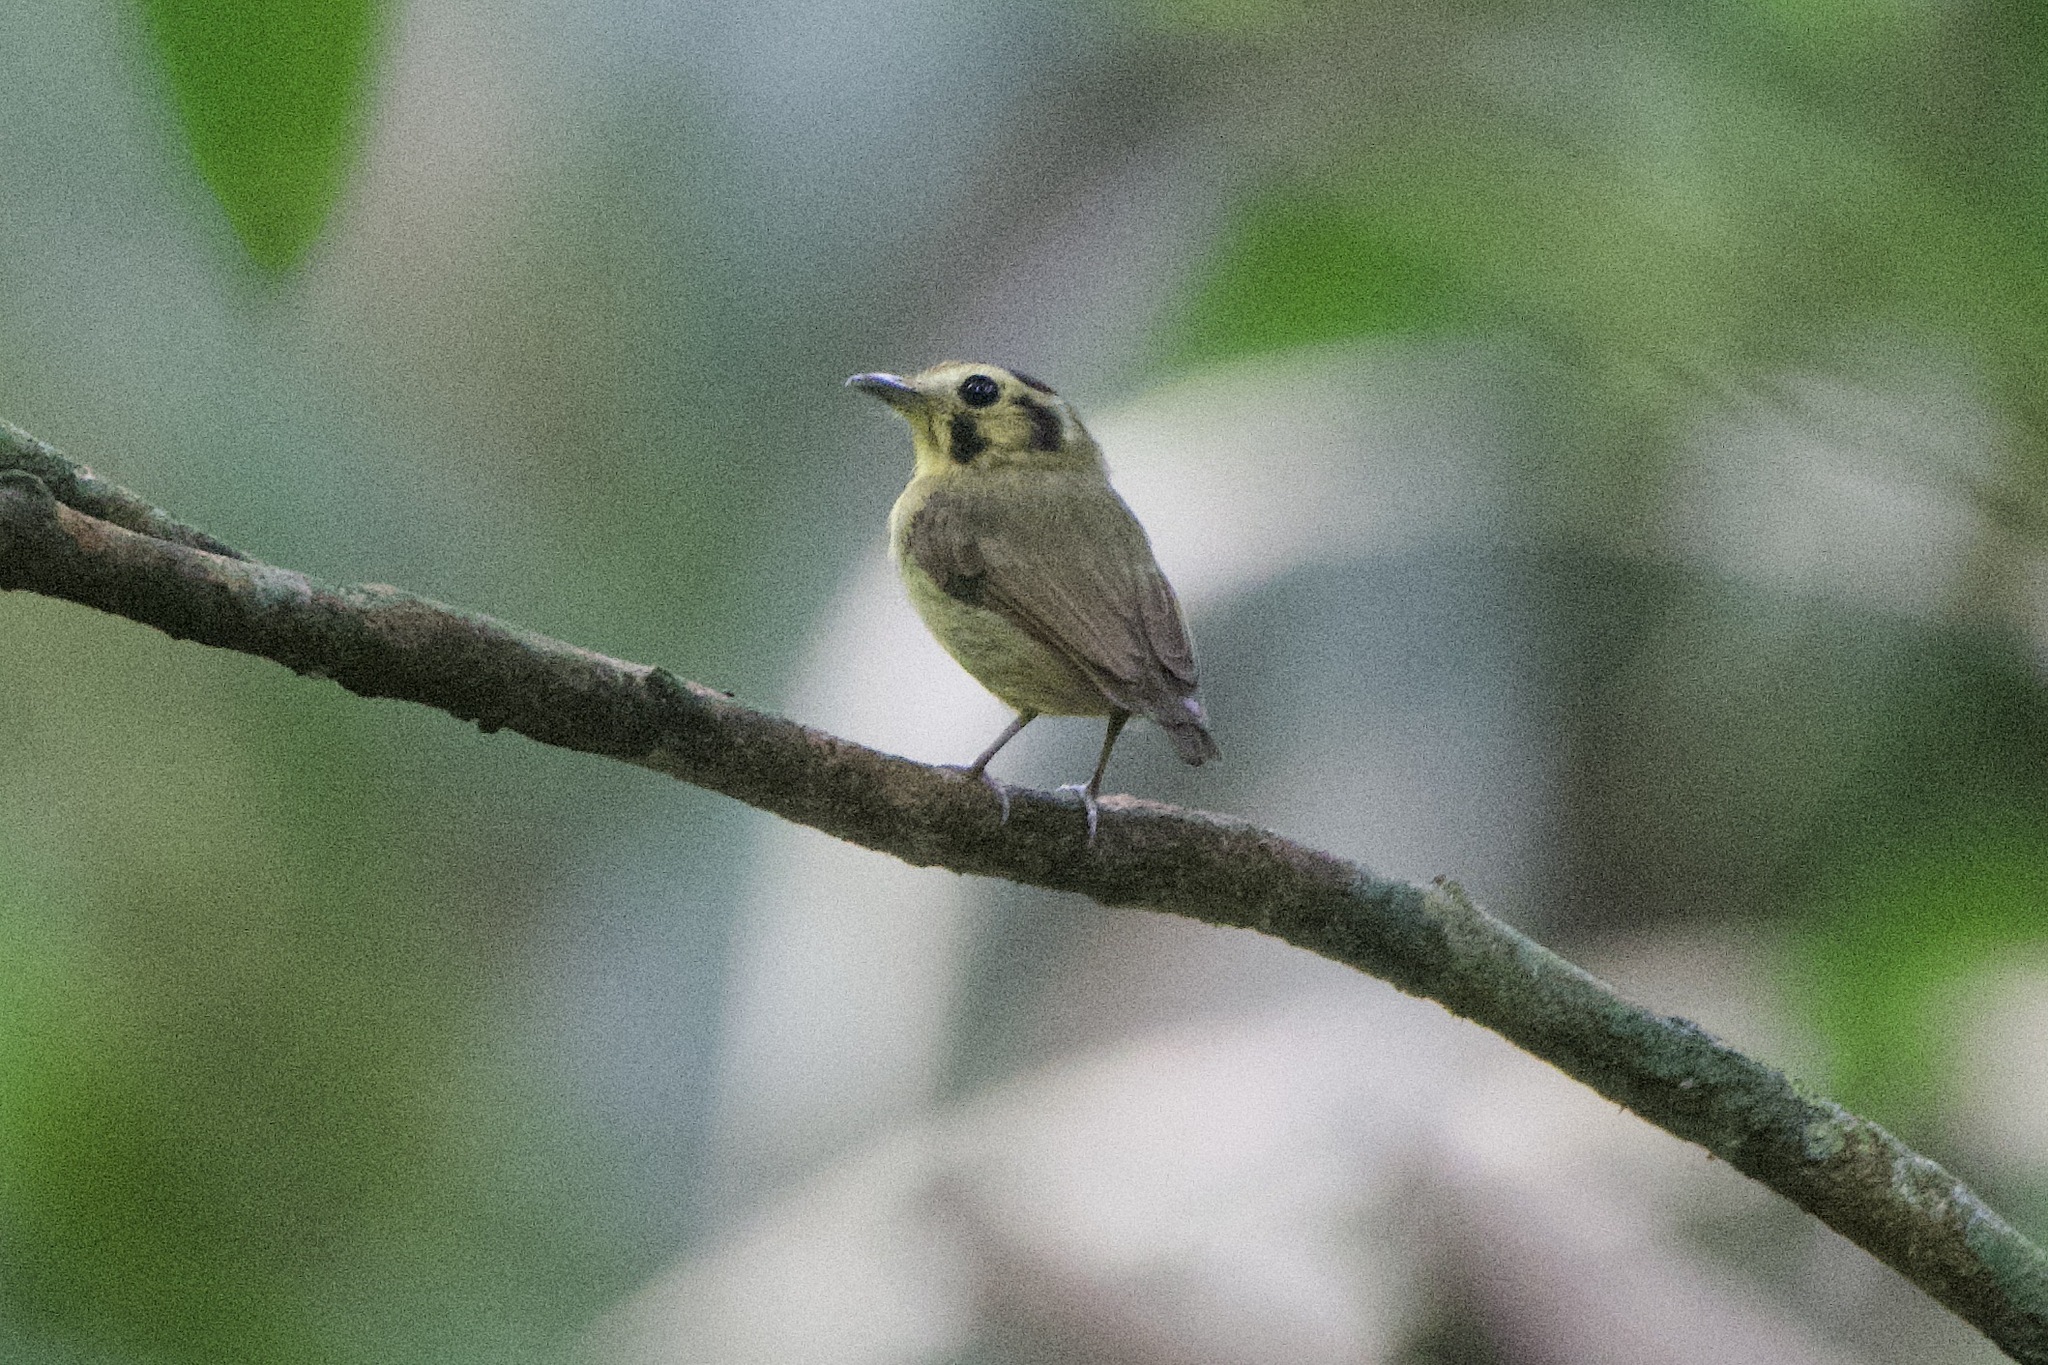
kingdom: Animalia
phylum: Chordata
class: Aves
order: Passeriformes
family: Tyrannidae
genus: Platyrinchus
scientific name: Platyrinchus coronatus
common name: Golden-crowned spadebill
